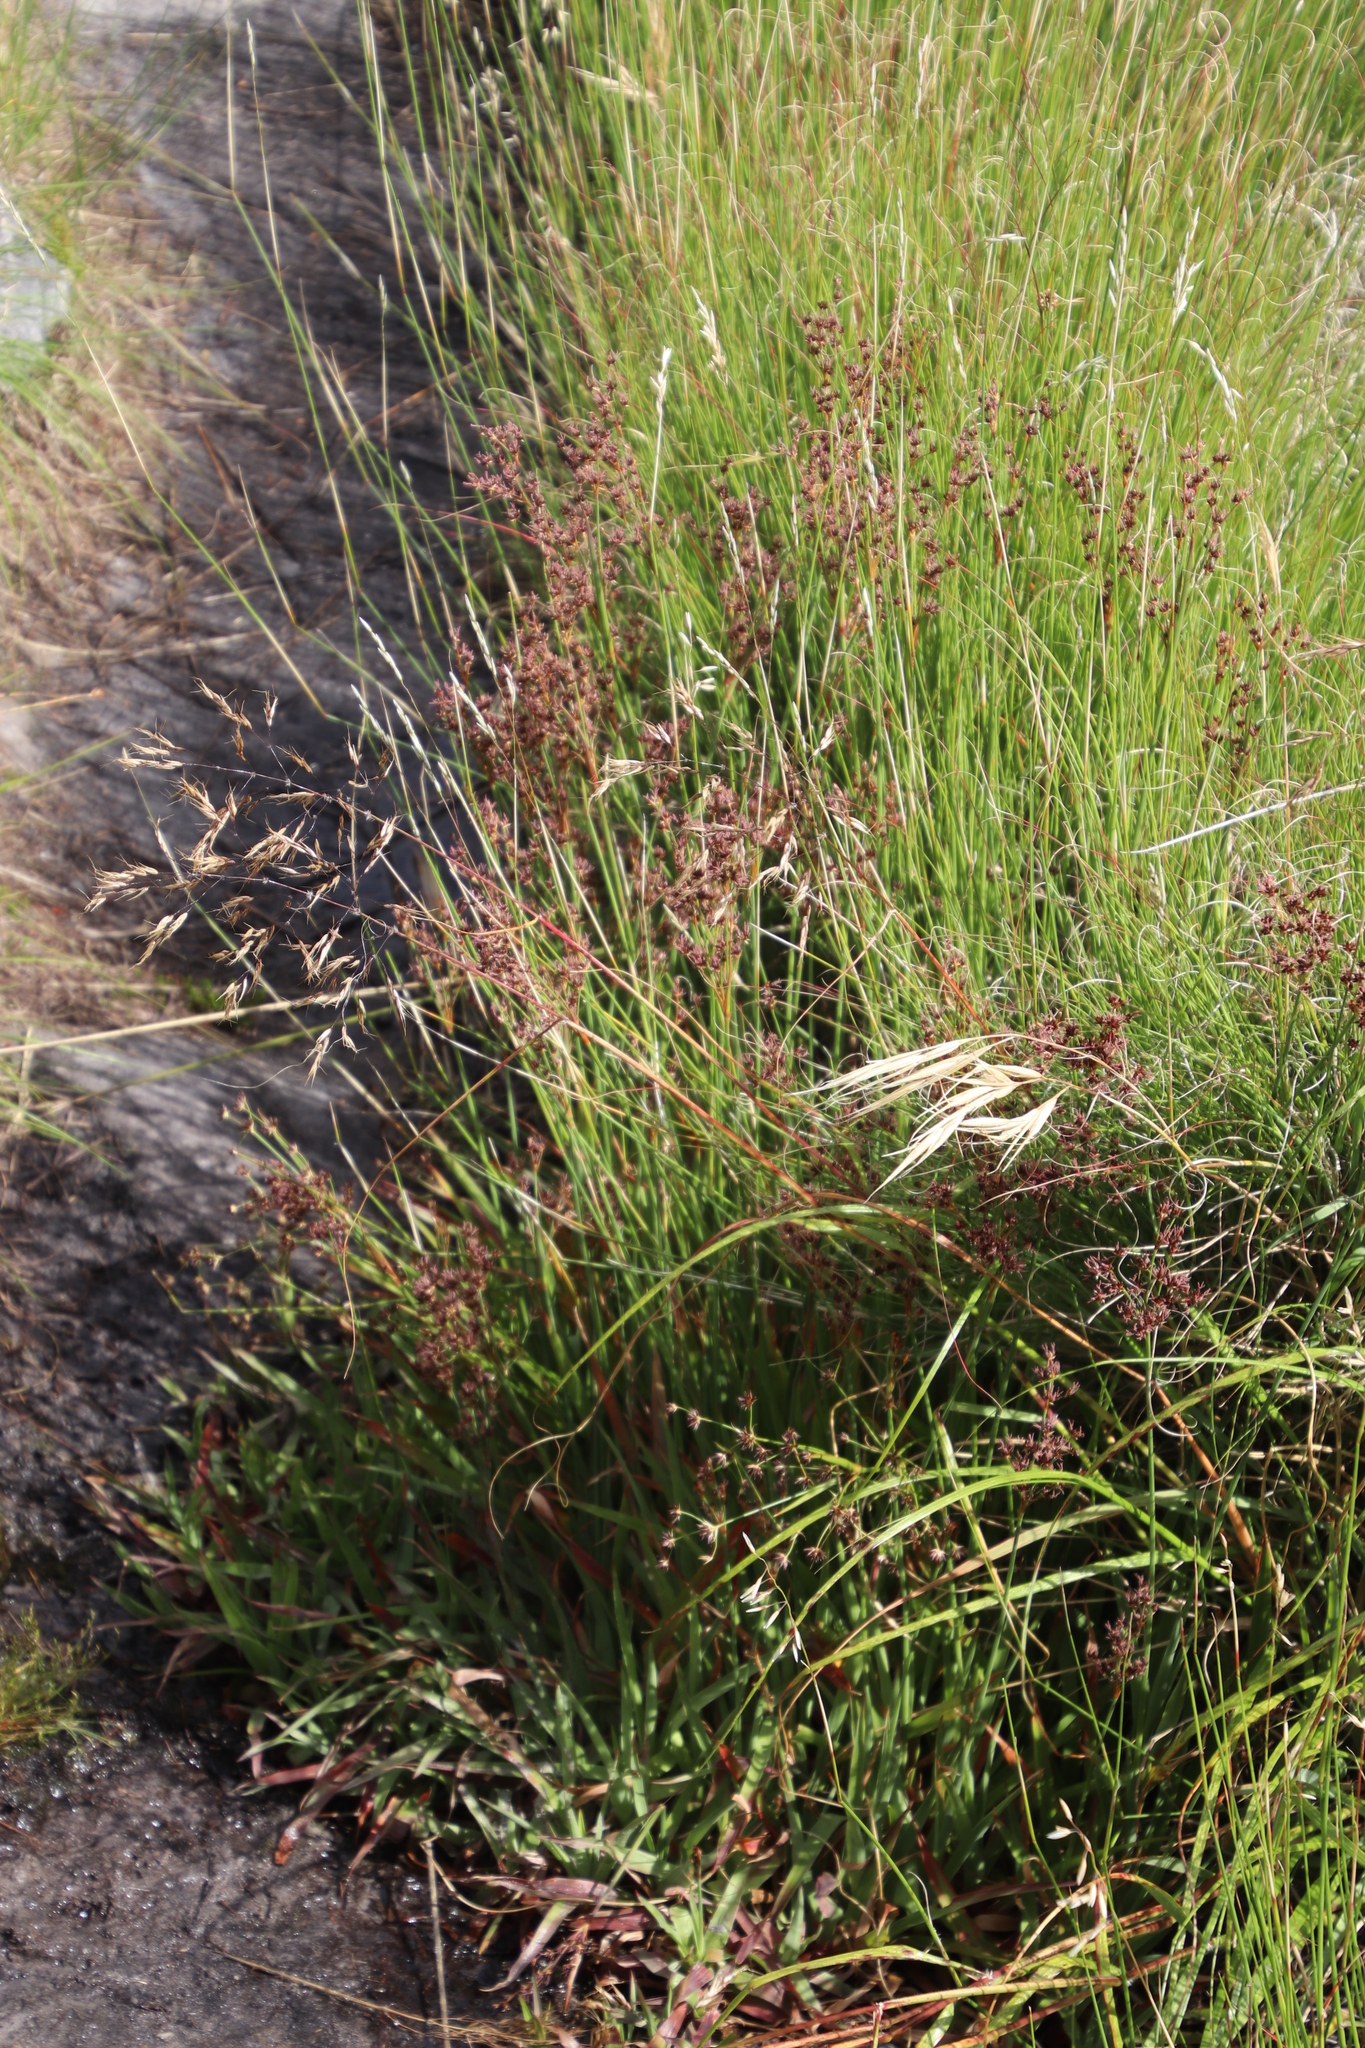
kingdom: Plantae
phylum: Tracheophyta
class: Liliopsida
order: Poales
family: Juncaceae
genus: Juncus
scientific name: Juncus lomatophyllus
